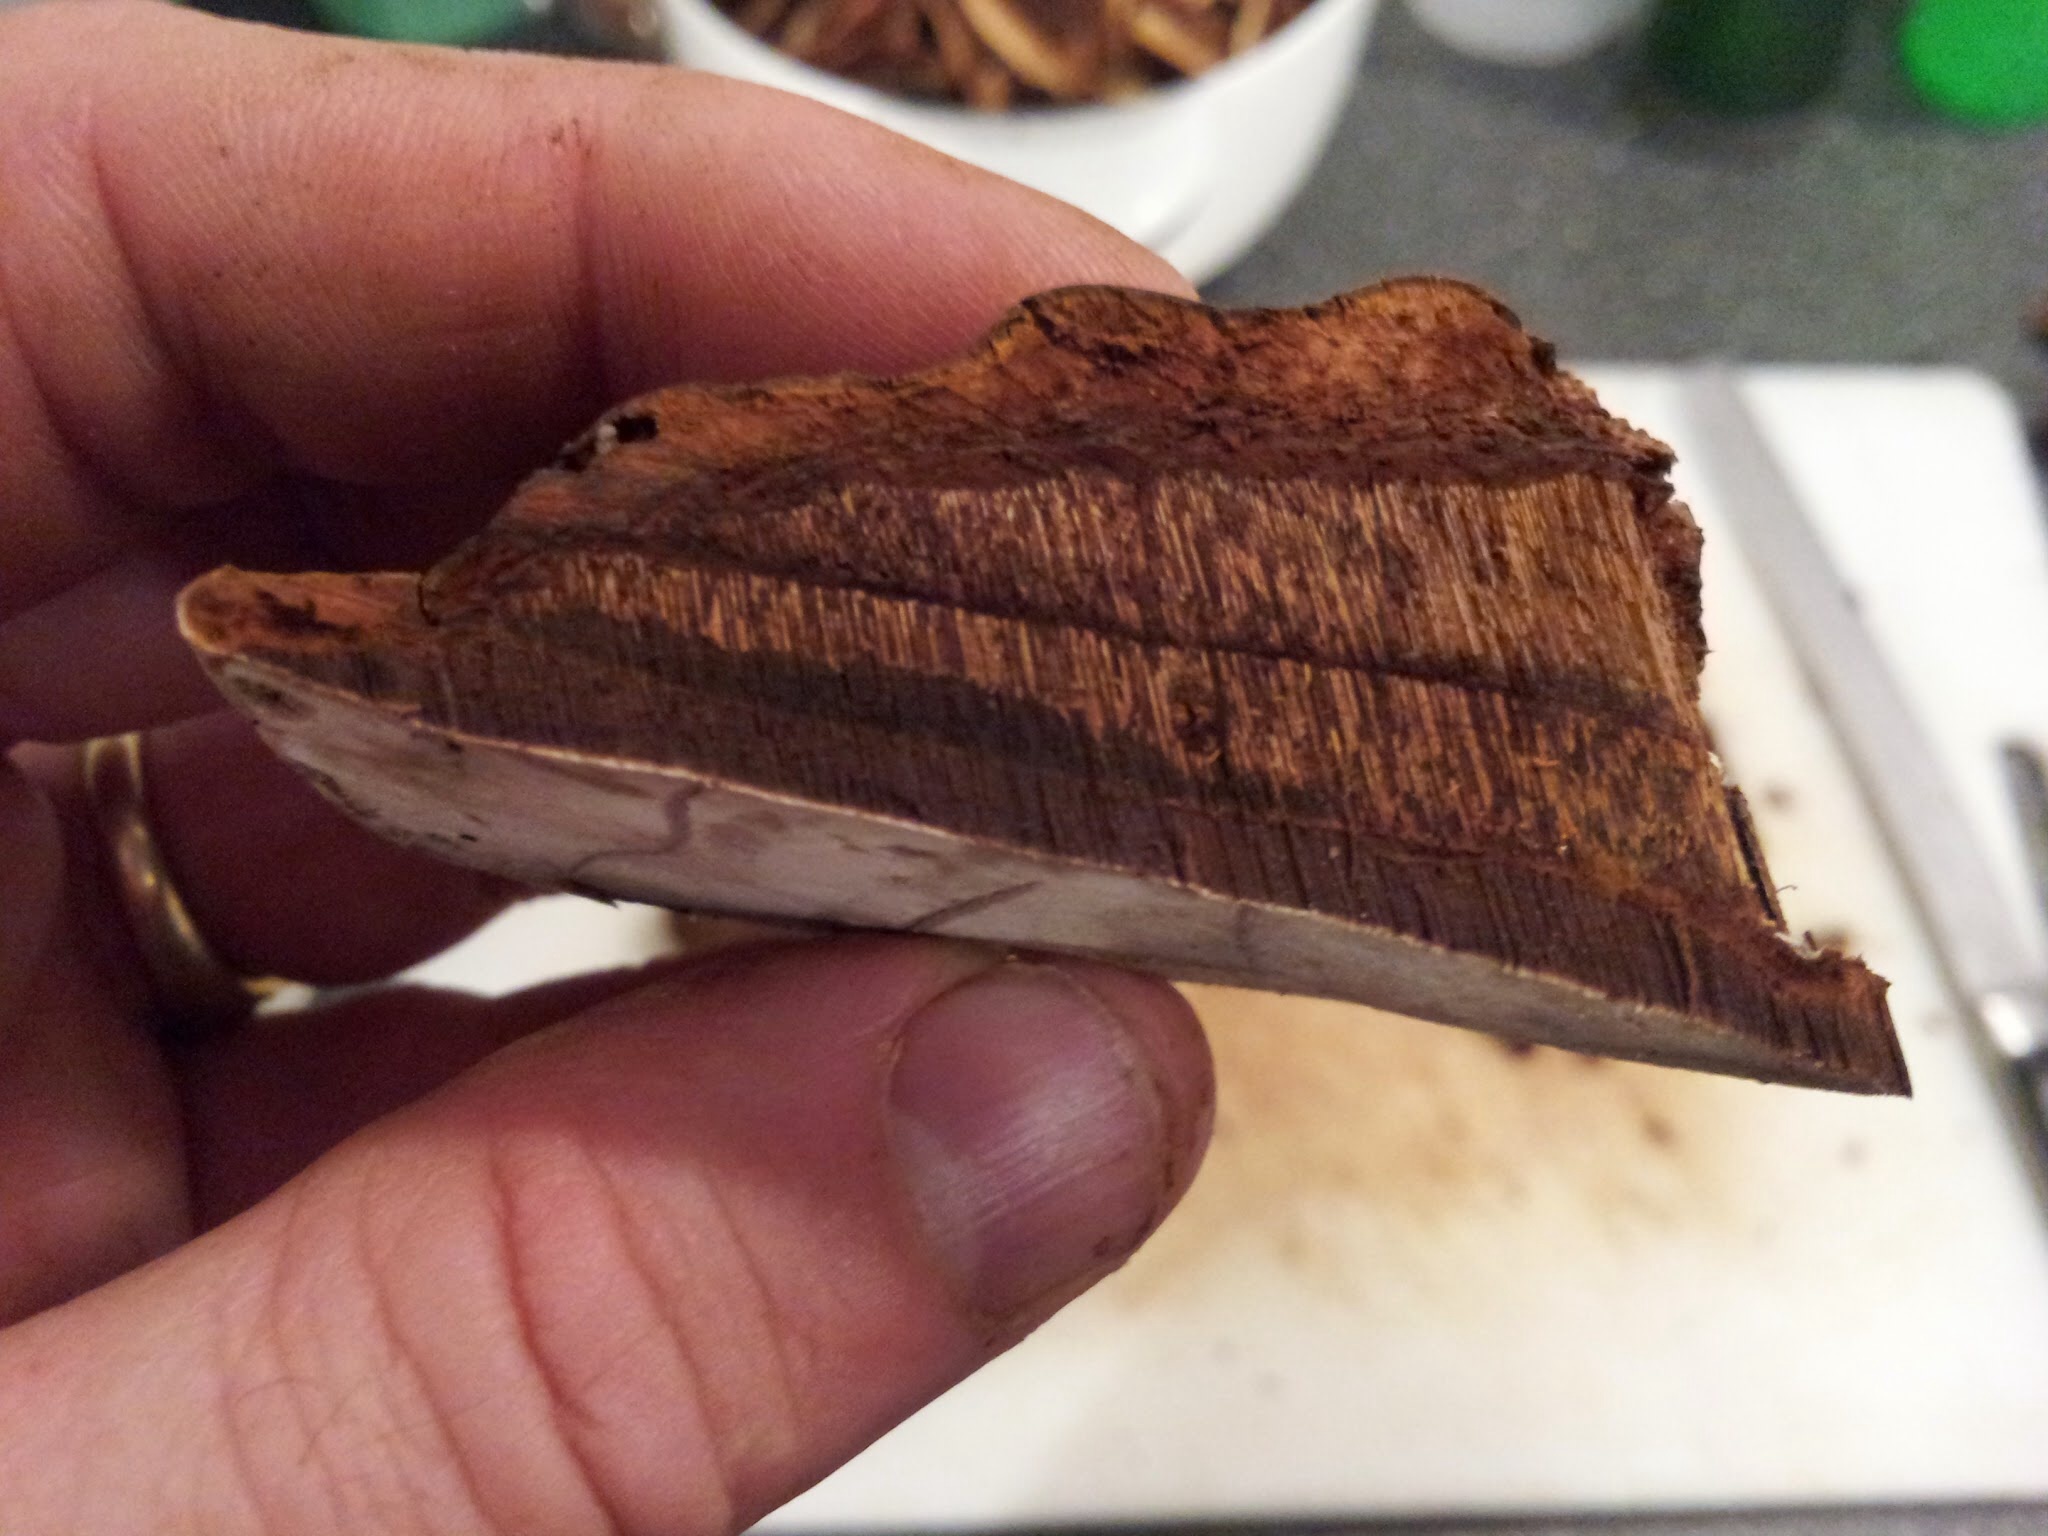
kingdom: Fungi
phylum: Basidiomycota
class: Agaricomycetes
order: Polyporales
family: Polyporaceae
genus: Ganoderma
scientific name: Ganoderma applanatum
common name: Artist's bracket
